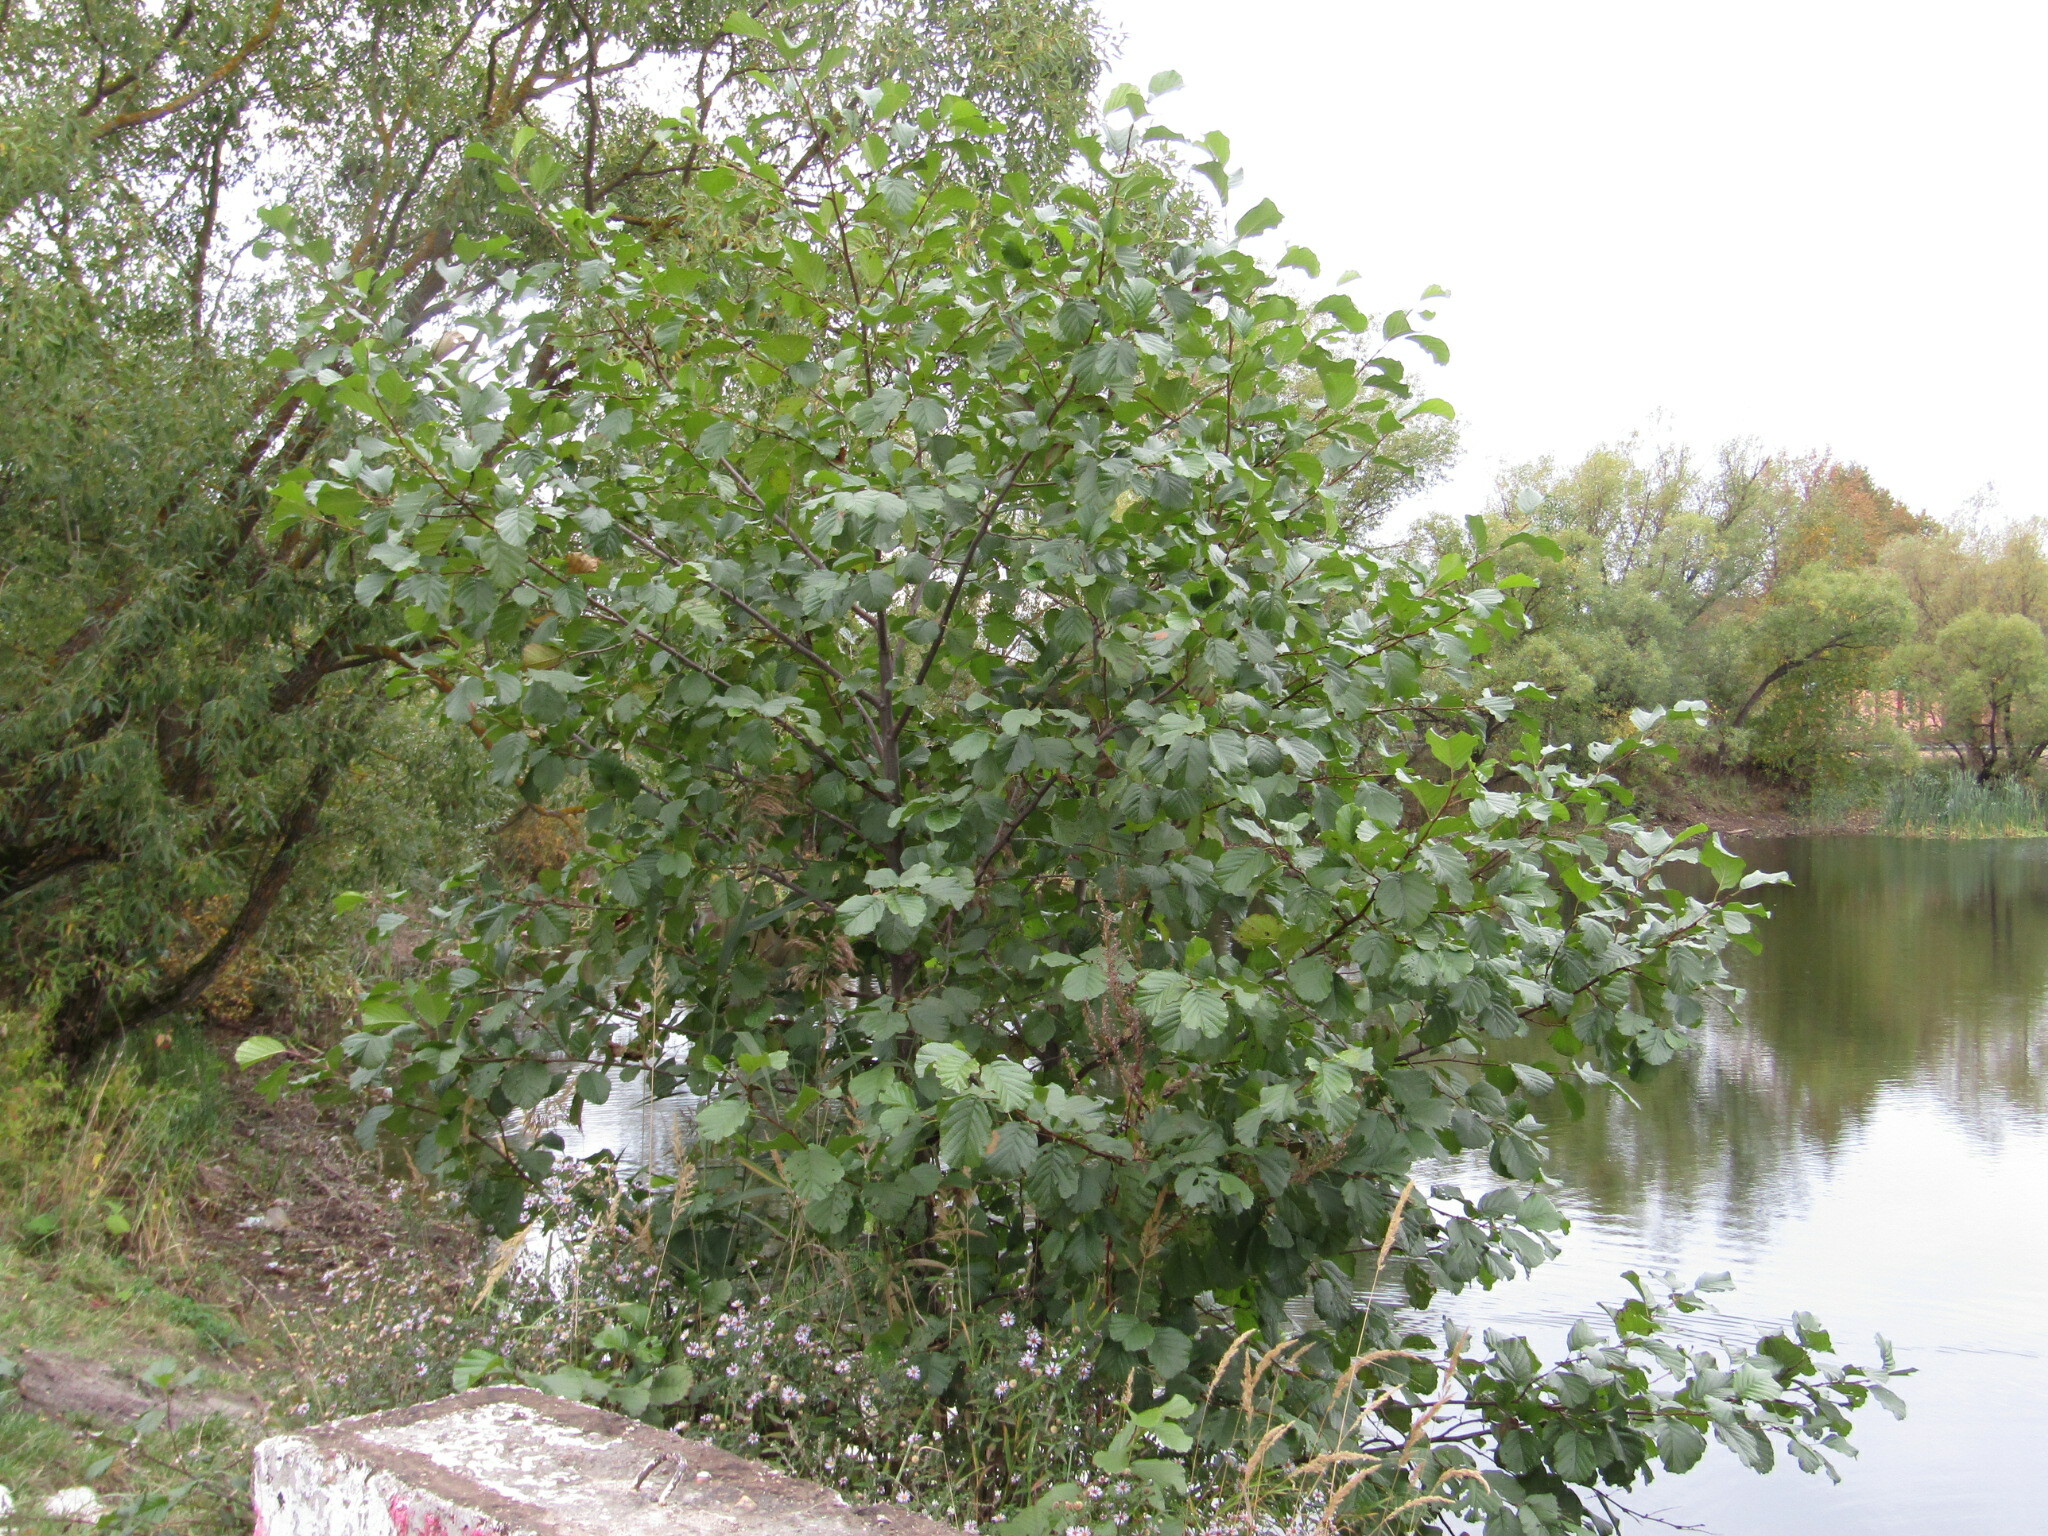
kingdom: Plantae
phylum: Tracheophyta
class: Magnoliopsida
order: Fagales
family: Betulaceae
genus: Alnus
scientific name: Alnus glutinosa
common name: Black alder
